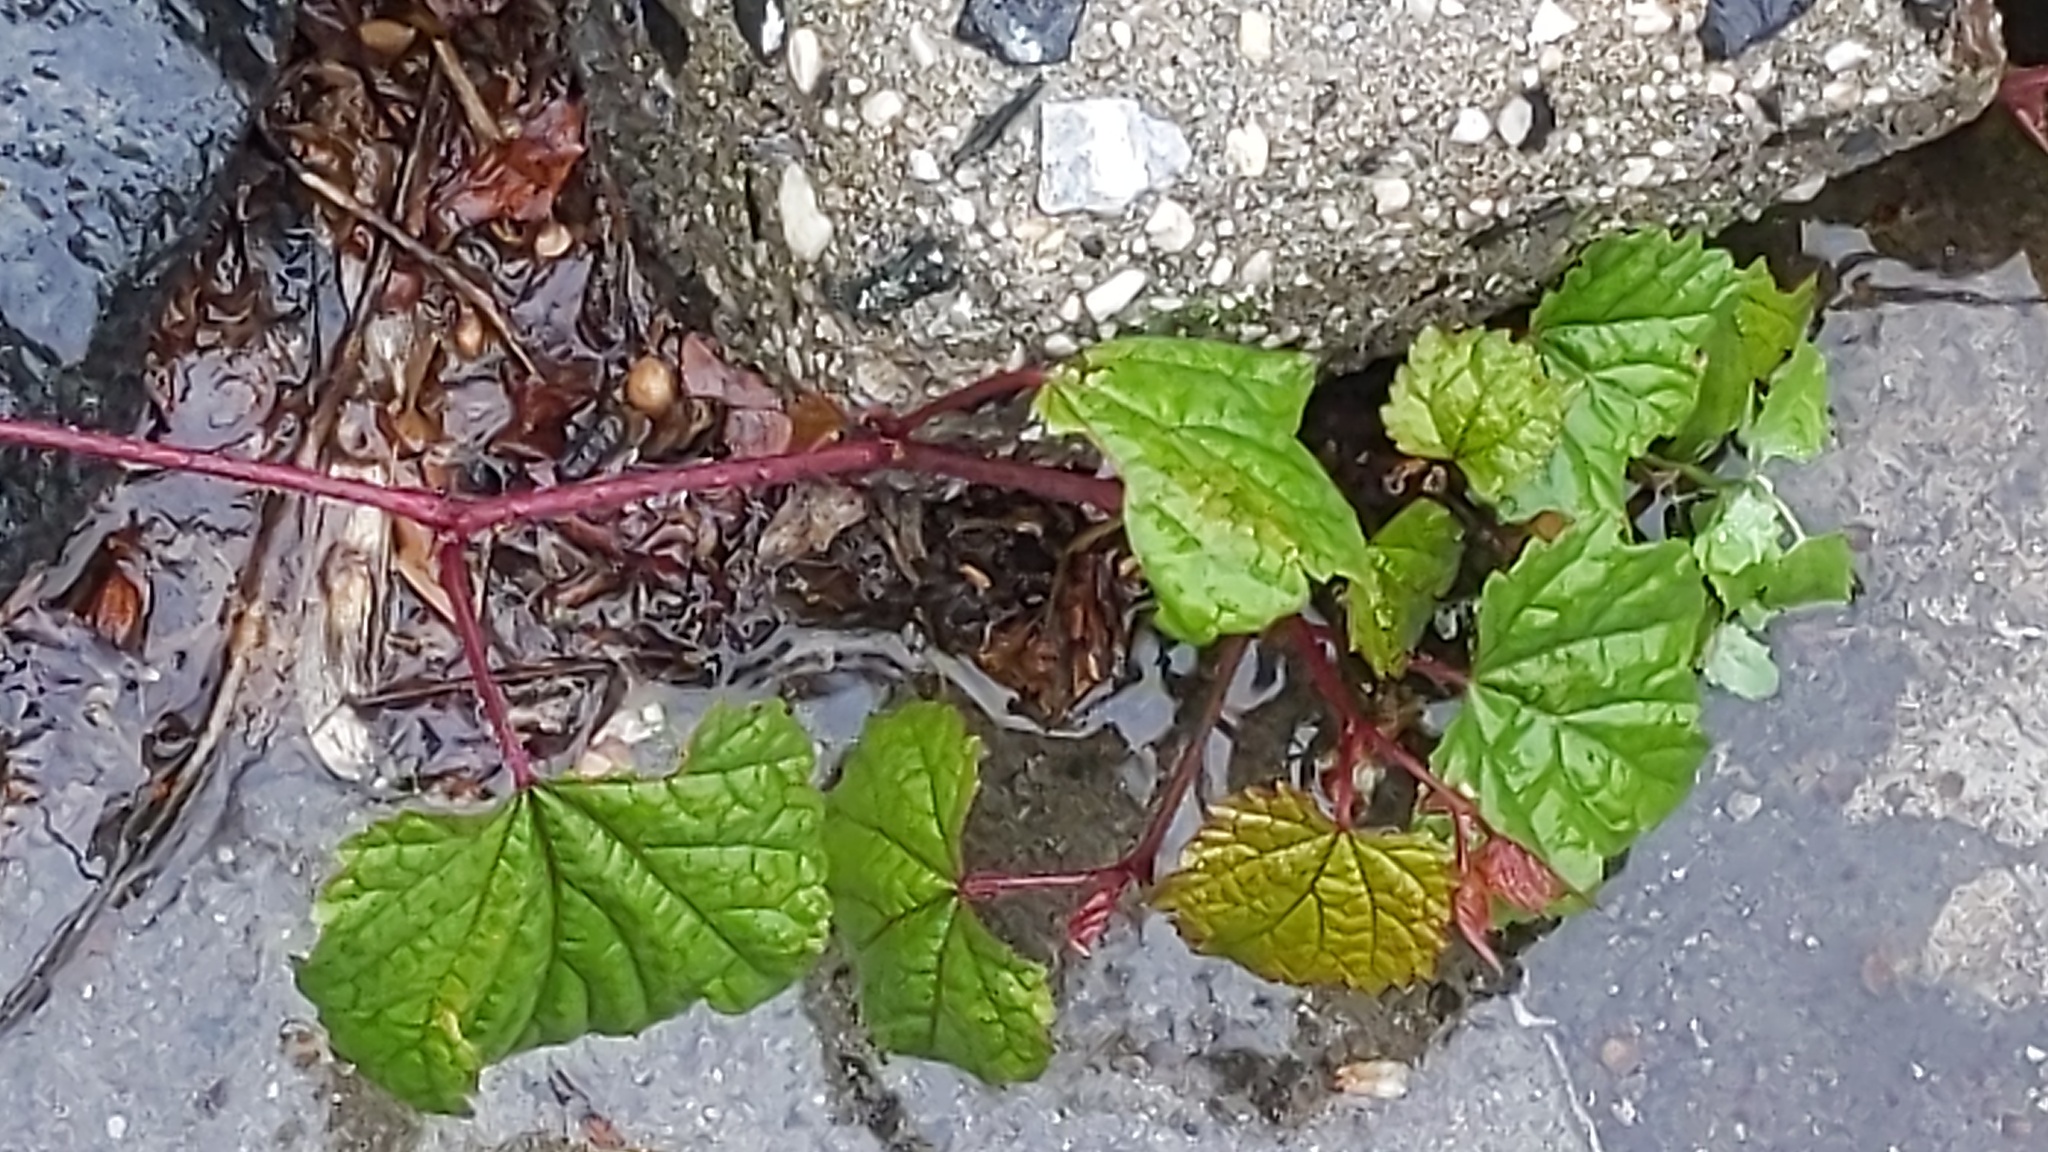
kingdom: Plantae
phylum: Tracheophyta
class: Magnoliopsida
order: Vitales
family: Vitaceae
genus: Ampelopsis
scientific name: Ampelopsis glandulosa
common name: Amur peppervine
